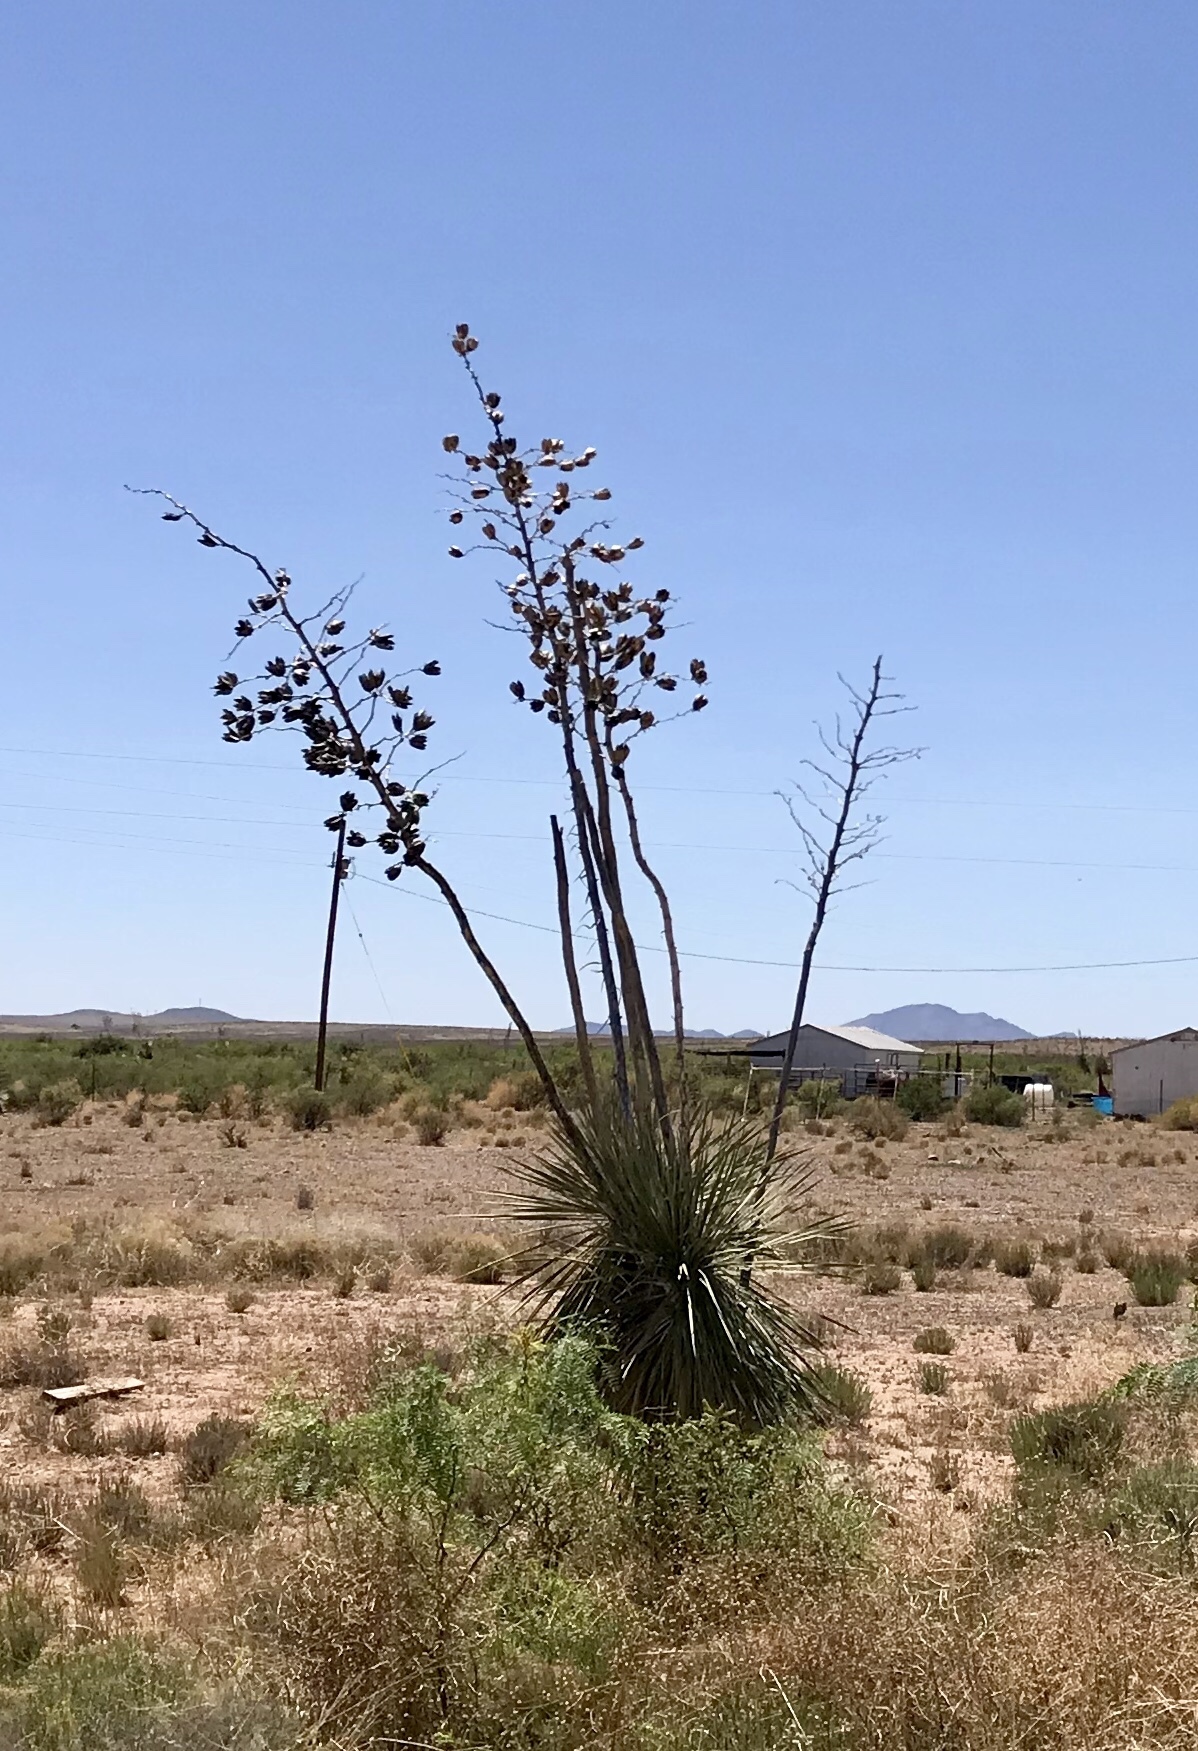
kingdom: Plantae
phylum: Tracheophyta
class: Liliopsida
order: Asparagales
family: Asparagaceae
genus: Yucca
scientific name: Yucca elata
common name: Palmella
